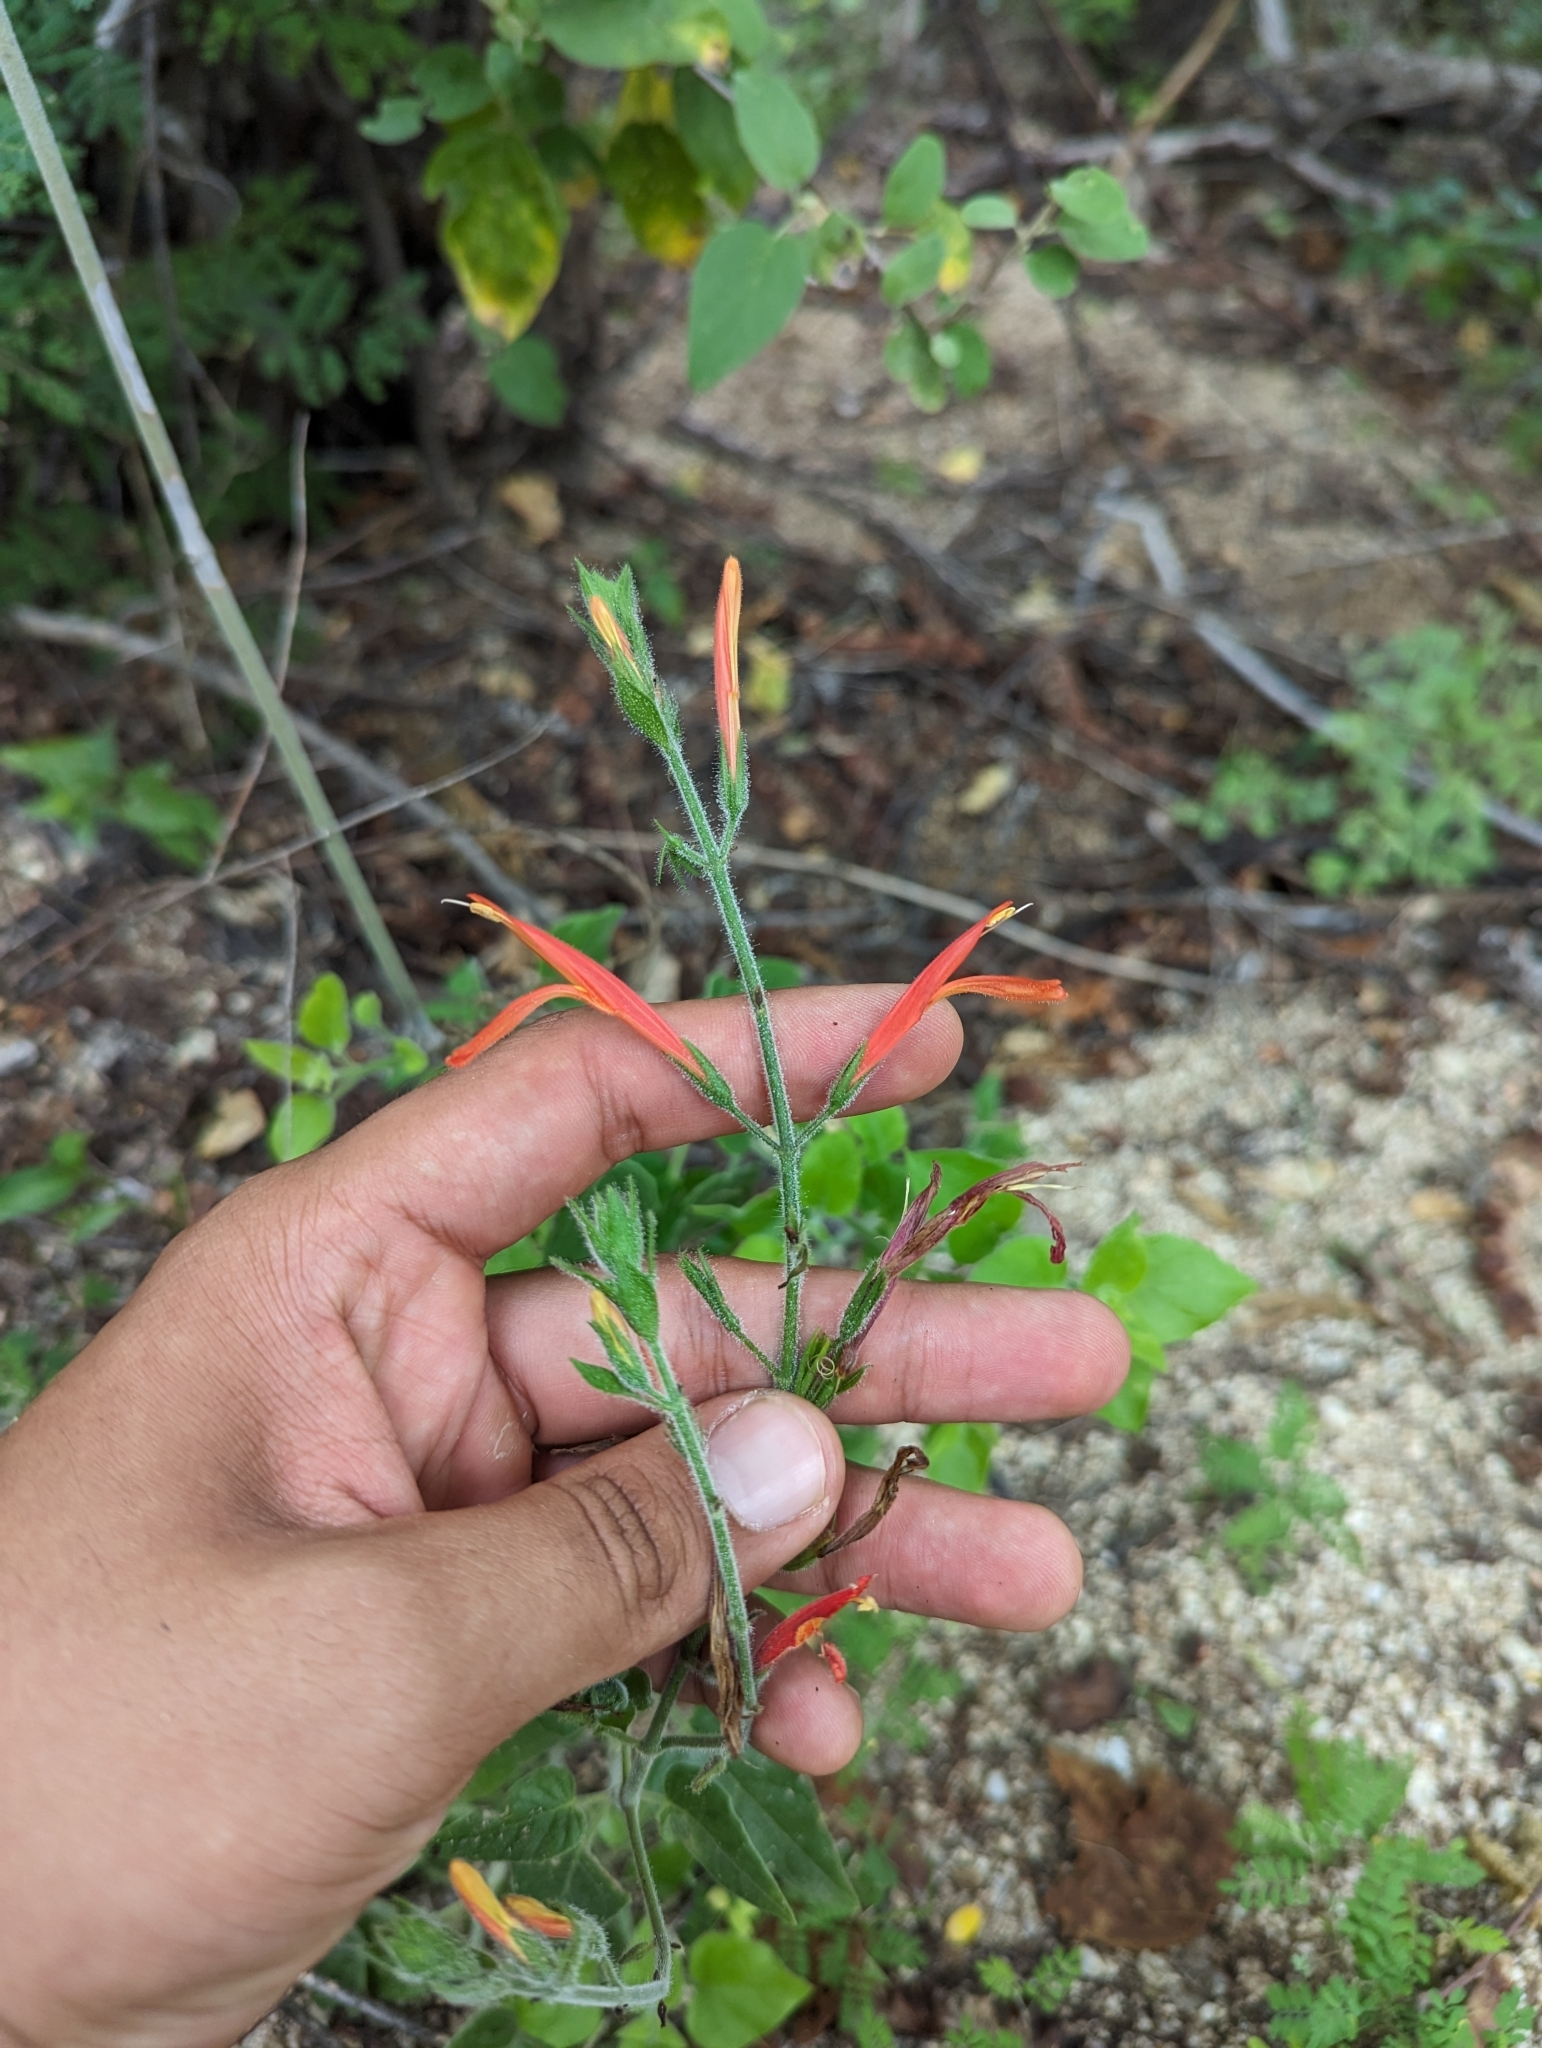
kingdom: Plantae
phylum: Tracheophyta
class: Magnoliopsida
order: Lamiales
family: Acanthaceae
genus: Justicia
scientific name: Justicia californica
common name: Chuparosa-honeysuckle
